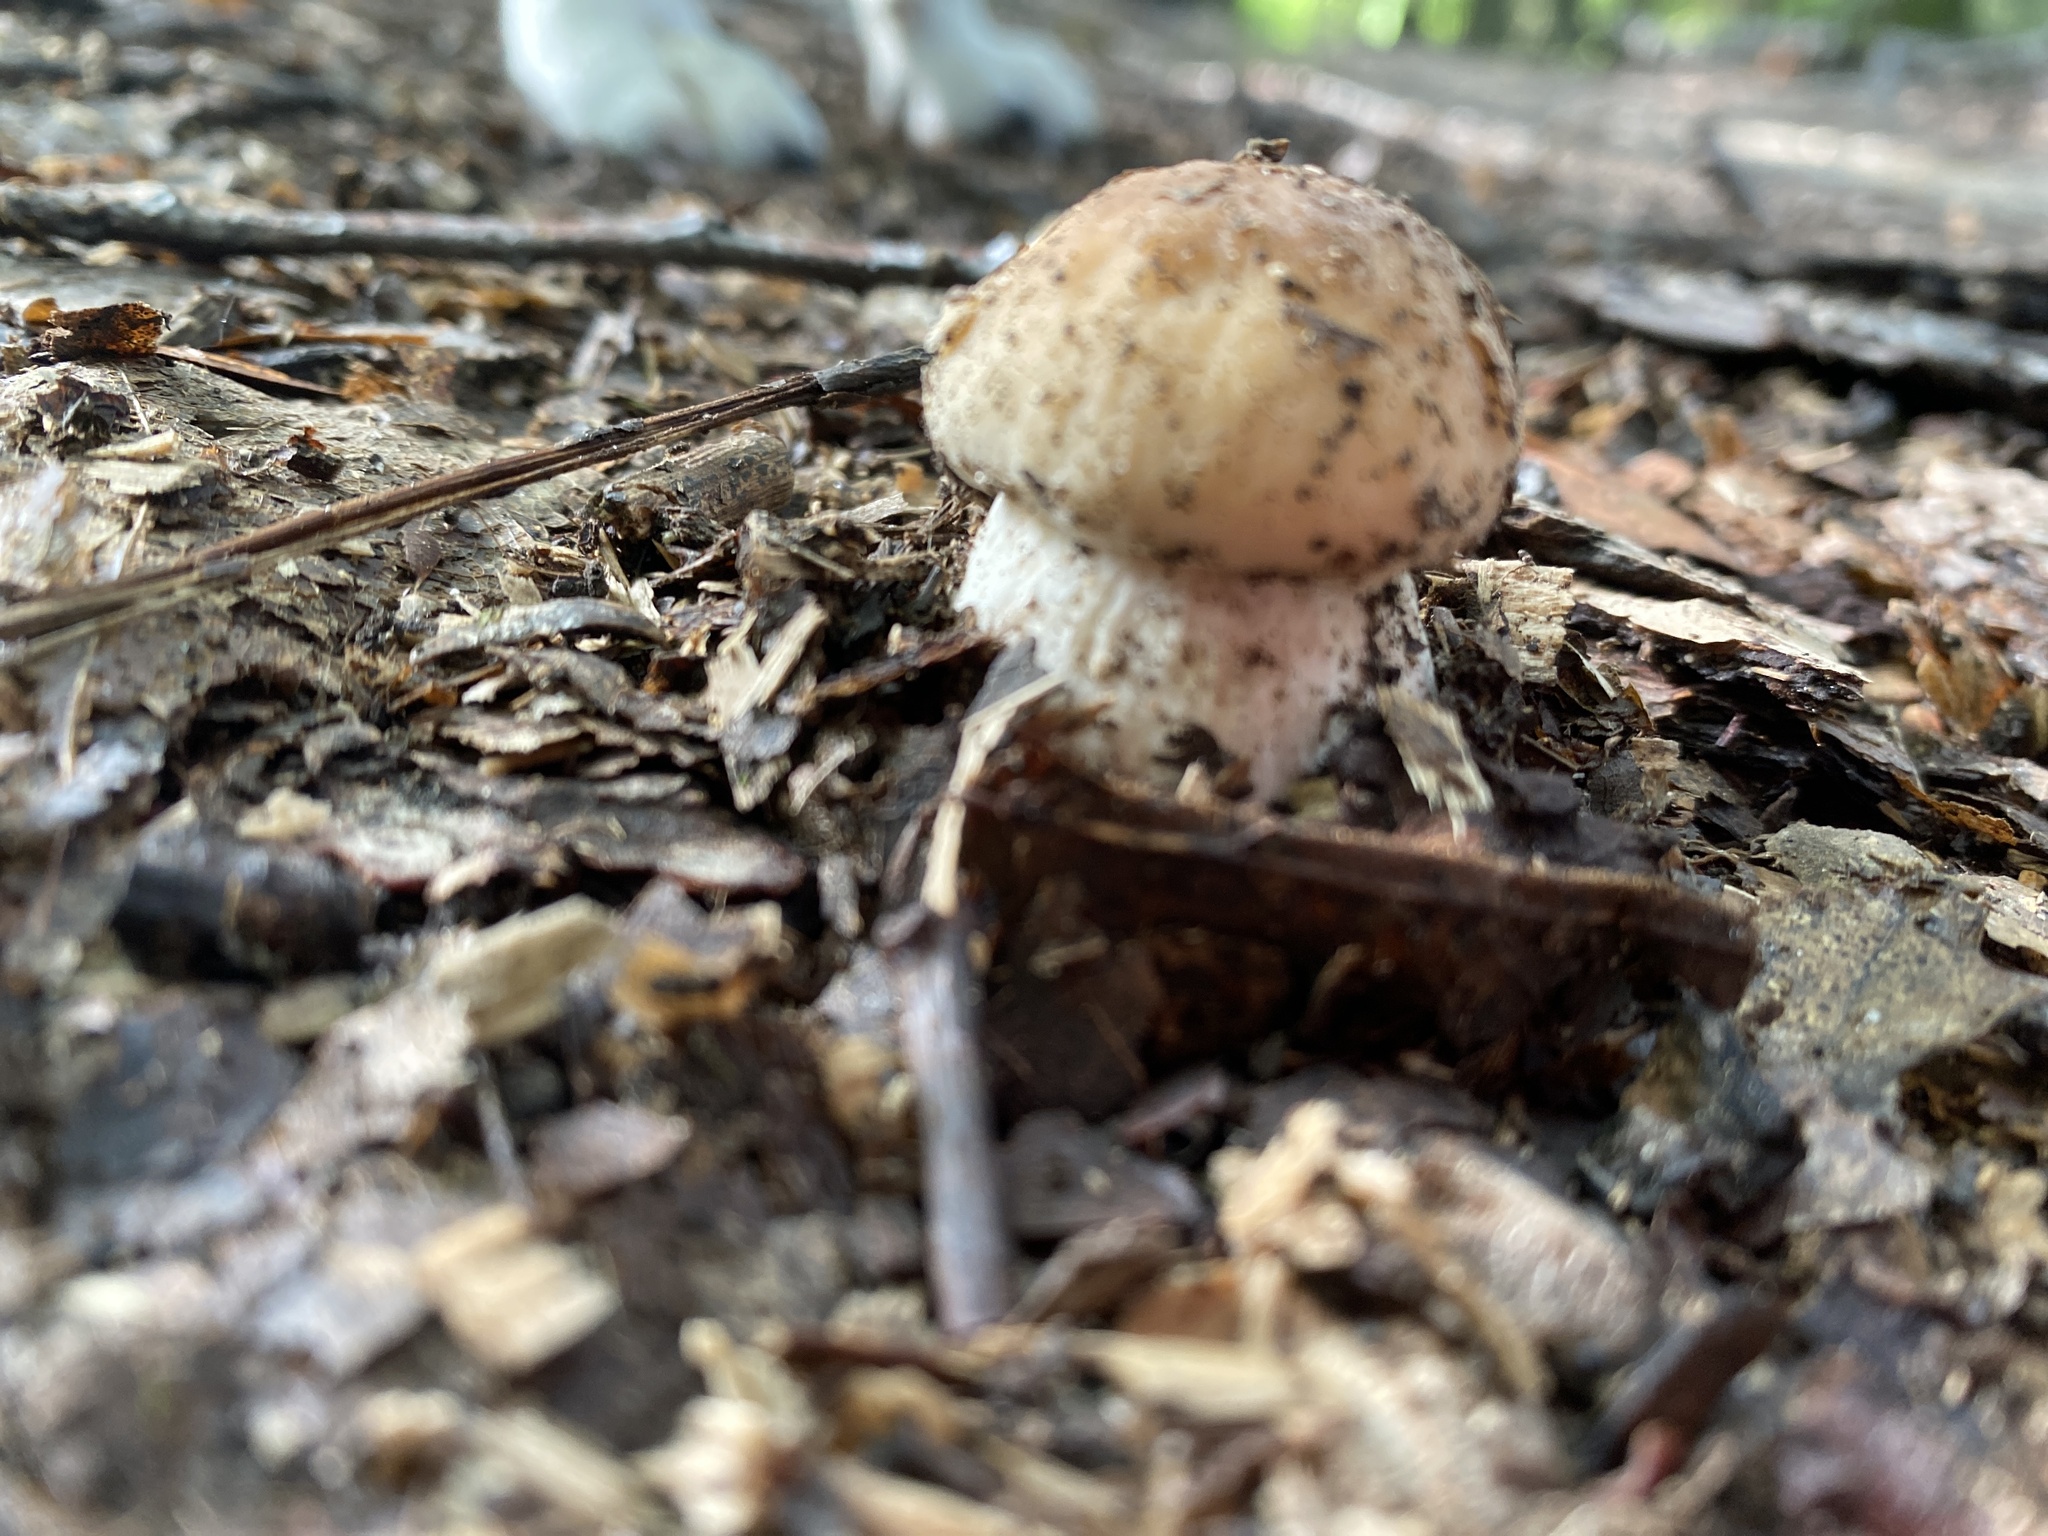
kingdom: Fungi
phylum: Basidiomycota
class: Agaricomycetes
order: Boletales
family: Boletaceae
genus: Boletus
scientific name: Boletus edulis
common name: Cep
